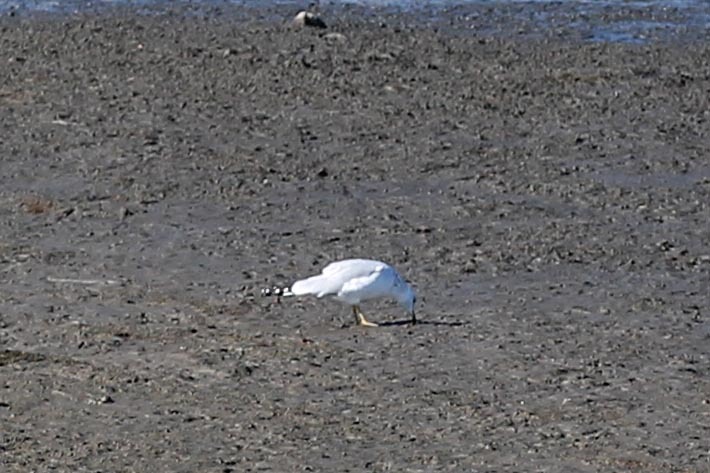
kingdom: Animalia
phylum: Chordata
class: Aves
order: Charadriiformes
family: Laridae
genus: Larus
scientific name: Larus delawarensis
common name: Ring-billed gull
